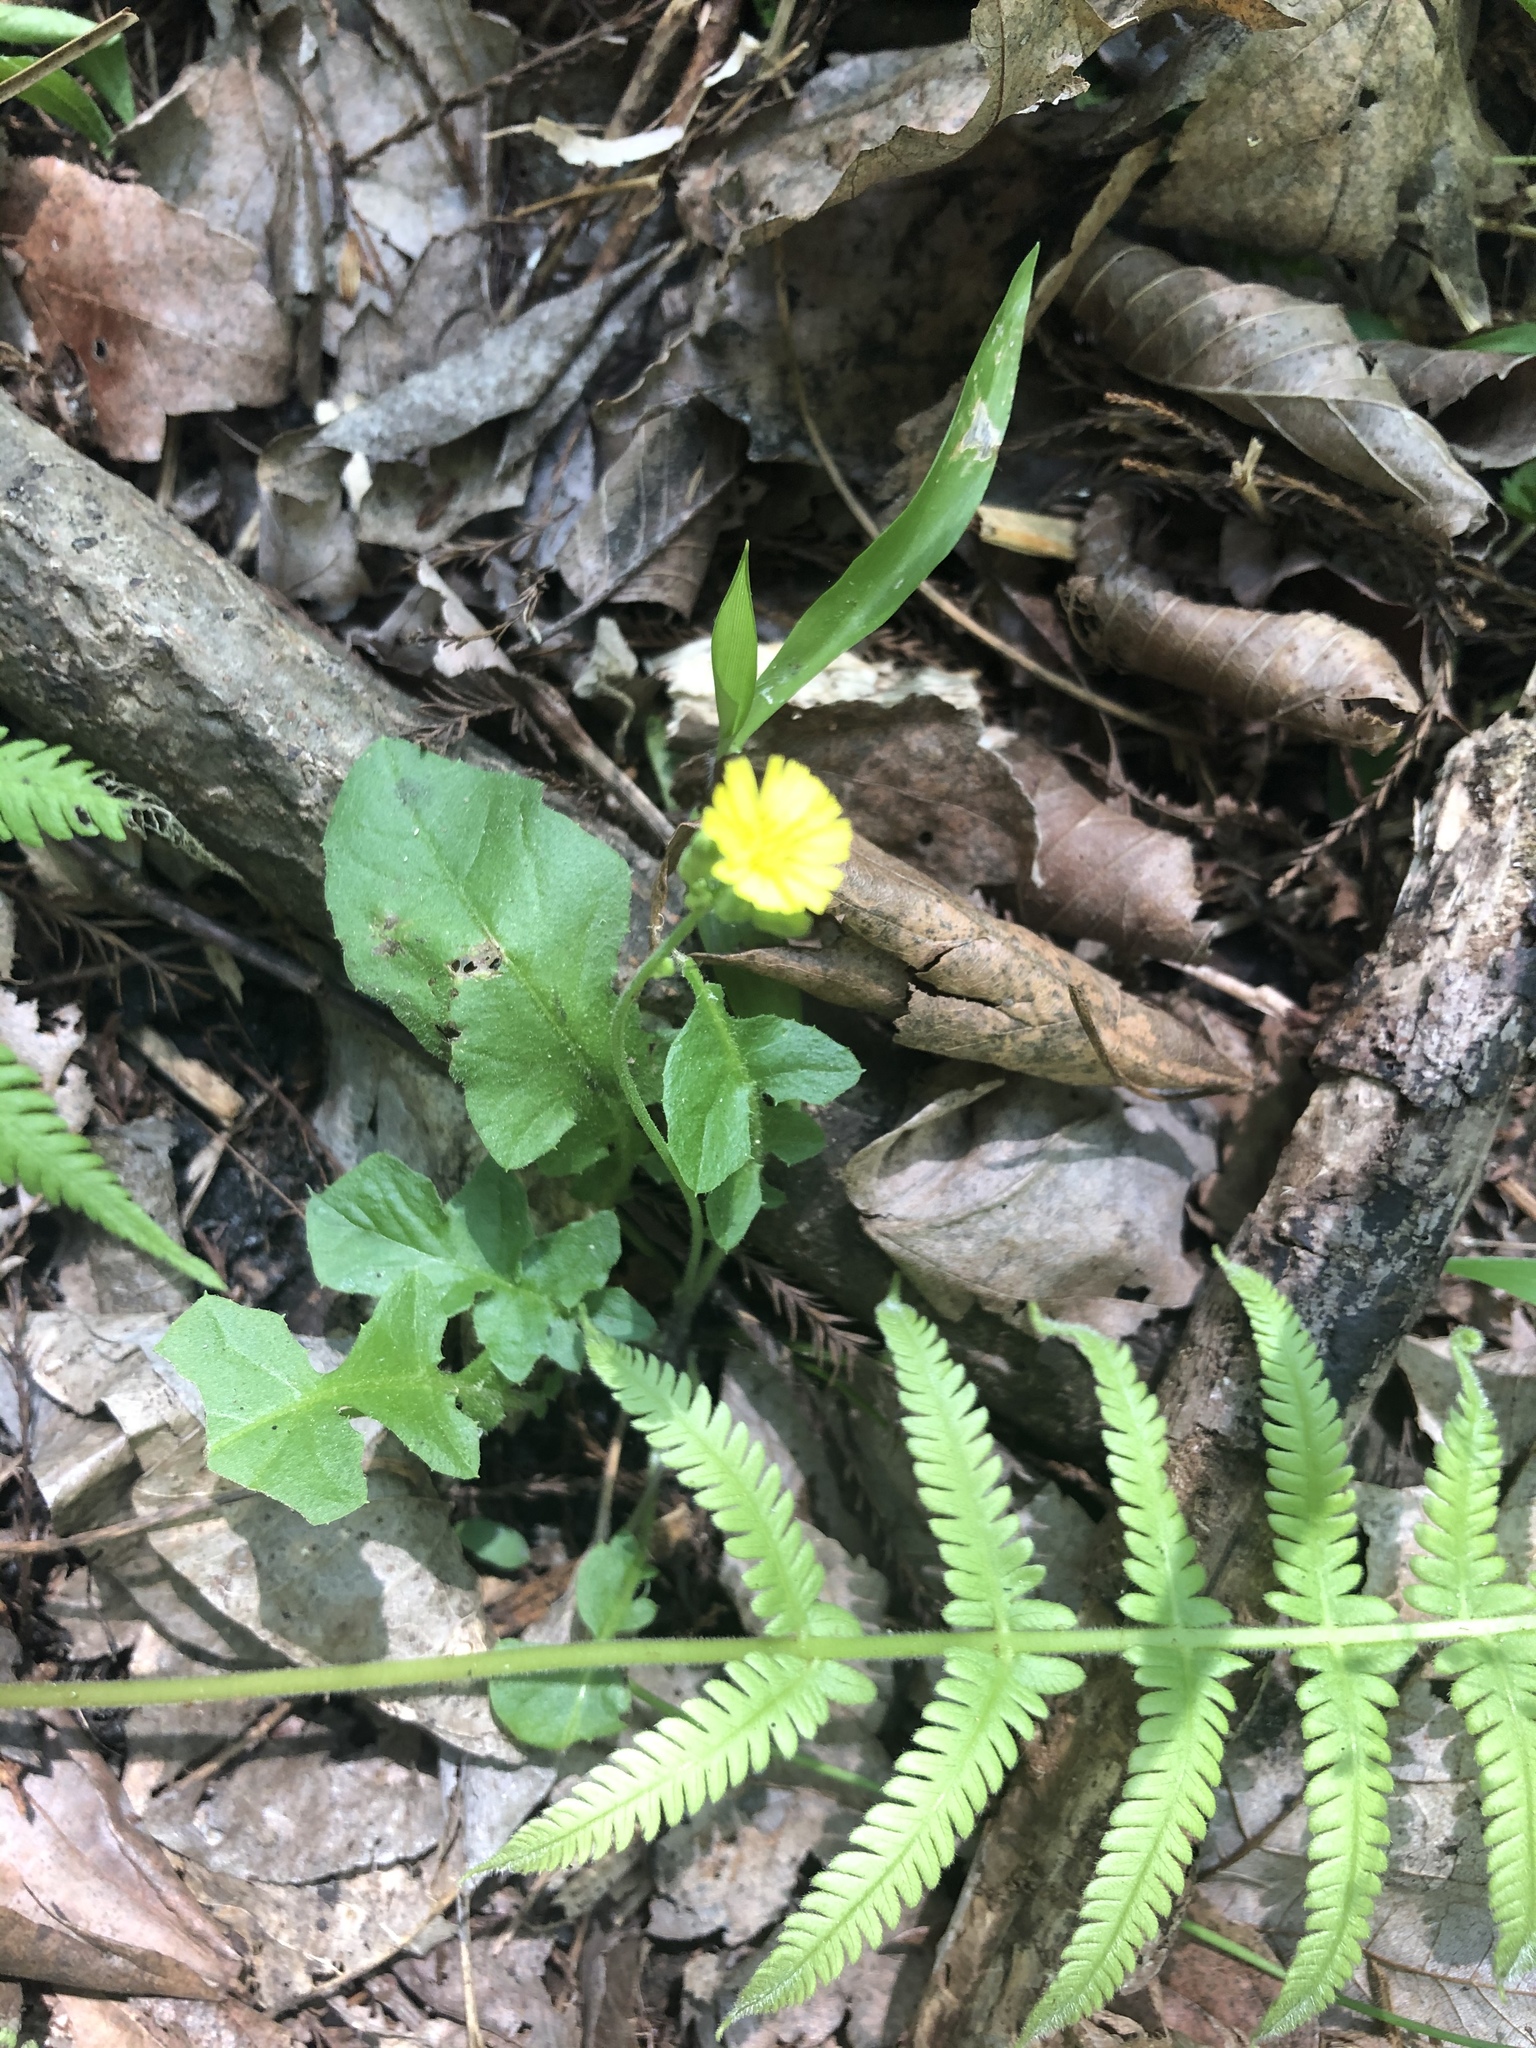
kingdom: Plantae
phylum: Tracheophyta
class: Magnoliopsida
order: Asterales
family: Asteraceae
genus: Youngia
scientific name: Youngia japonica
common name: Oriental false hawksbeard
